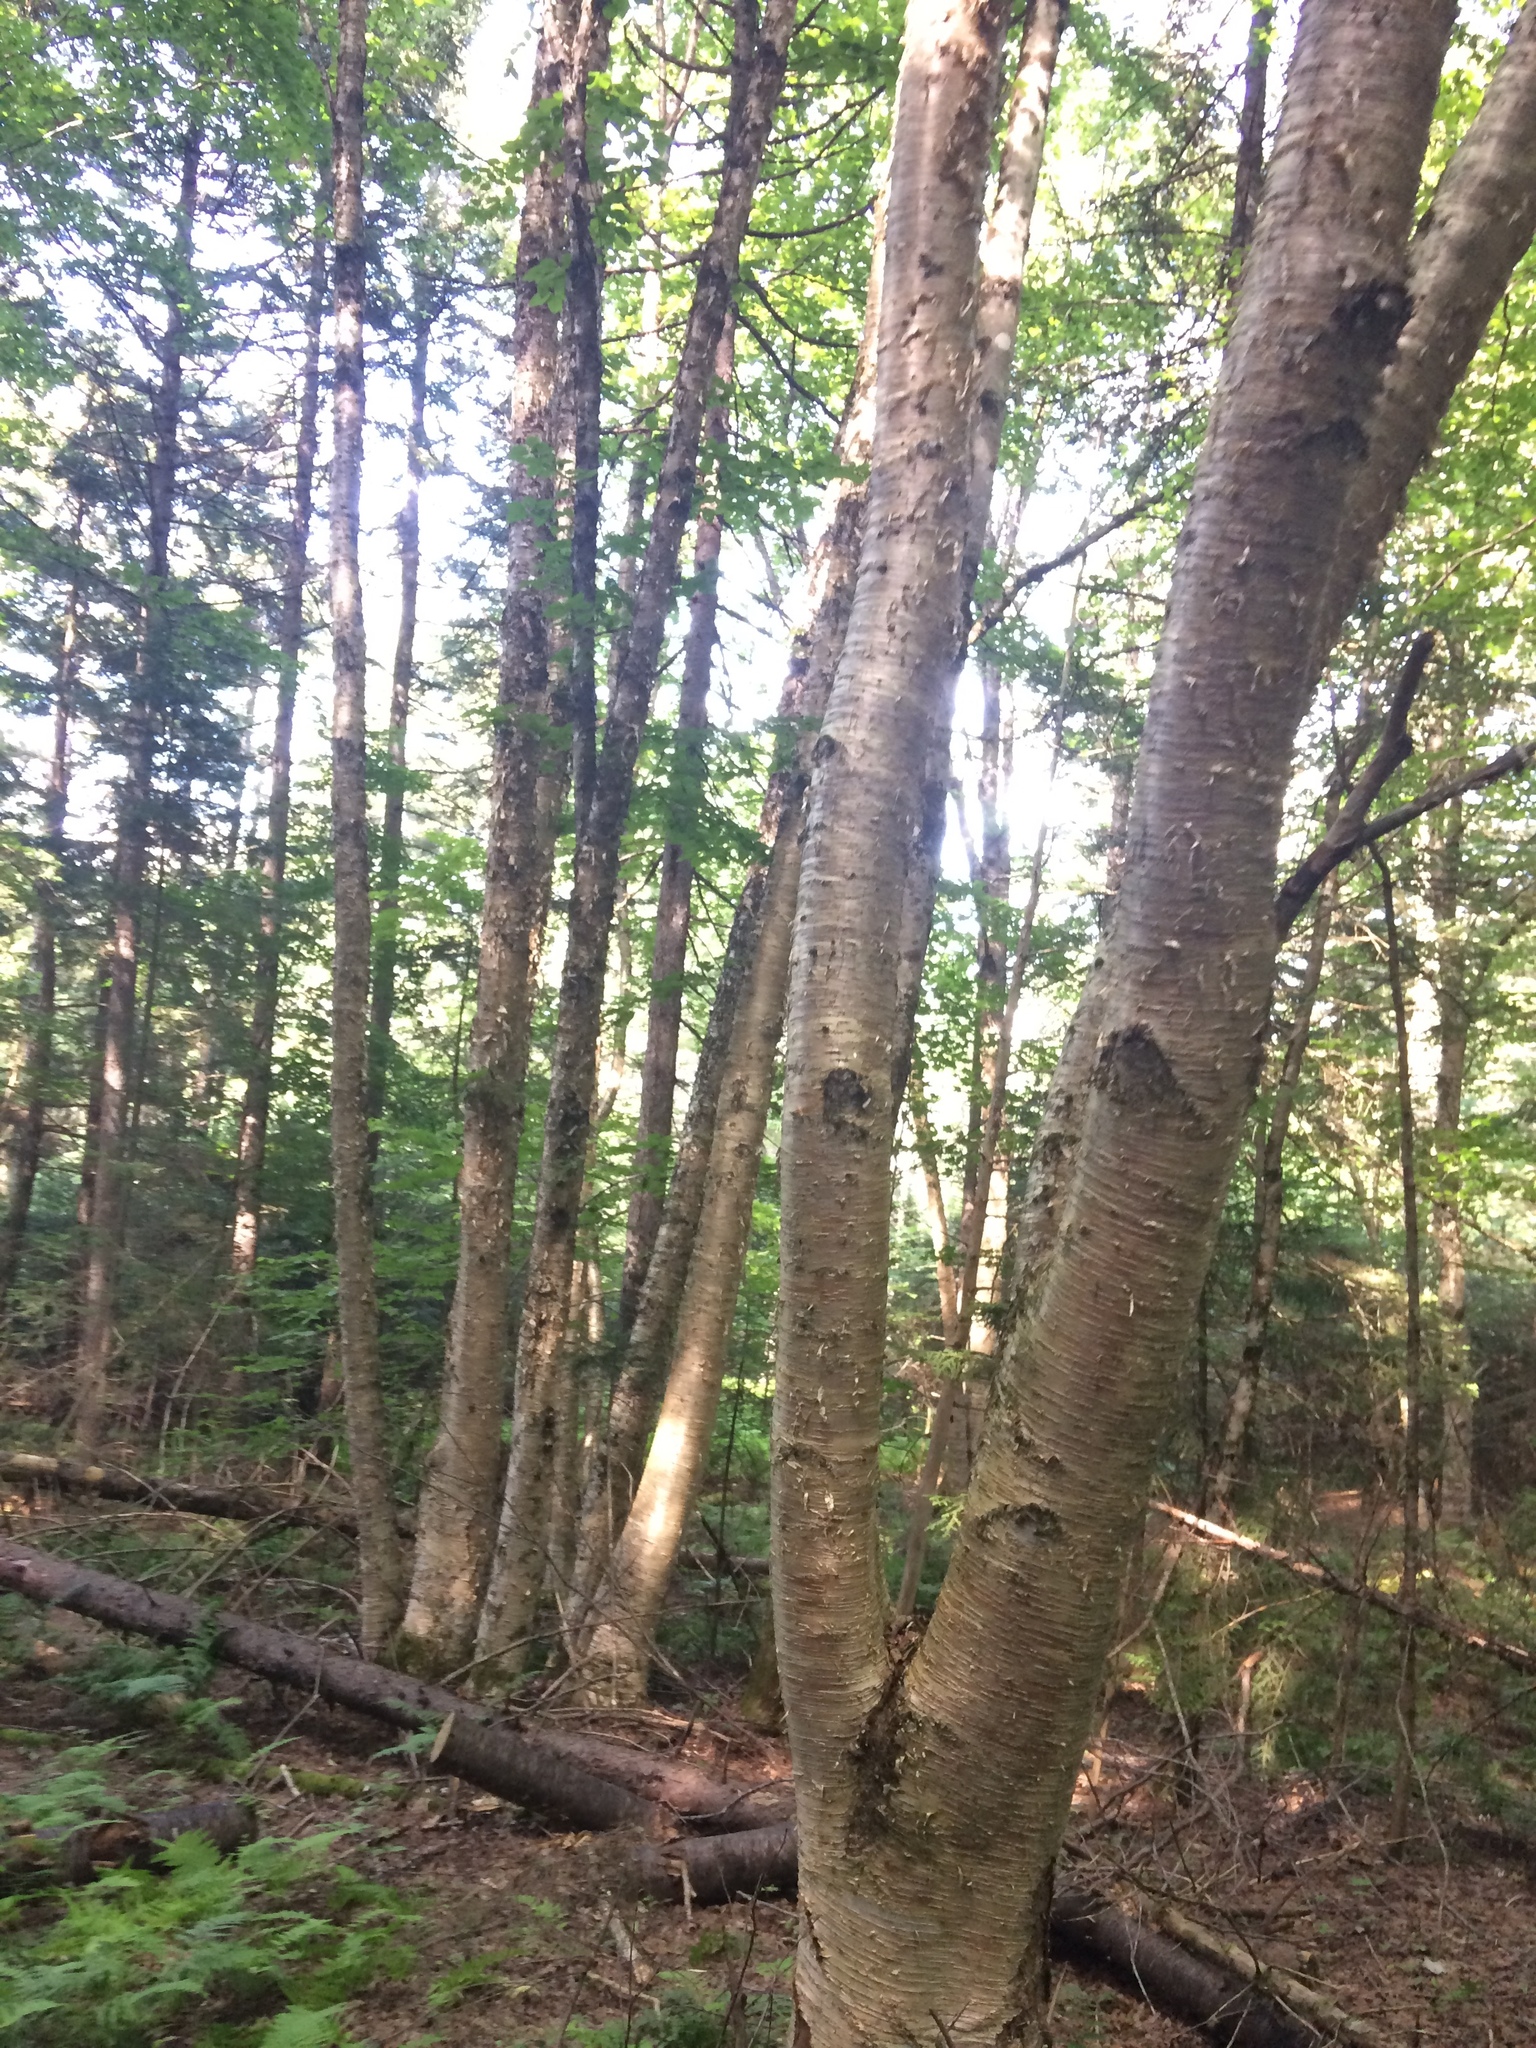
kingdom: Plantae
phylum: Tracheophyta
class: Magnoliopsida
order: Fagales
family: Betulaceae
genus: Betula
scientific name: Betula alleghaniensis
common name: Yellow birch
